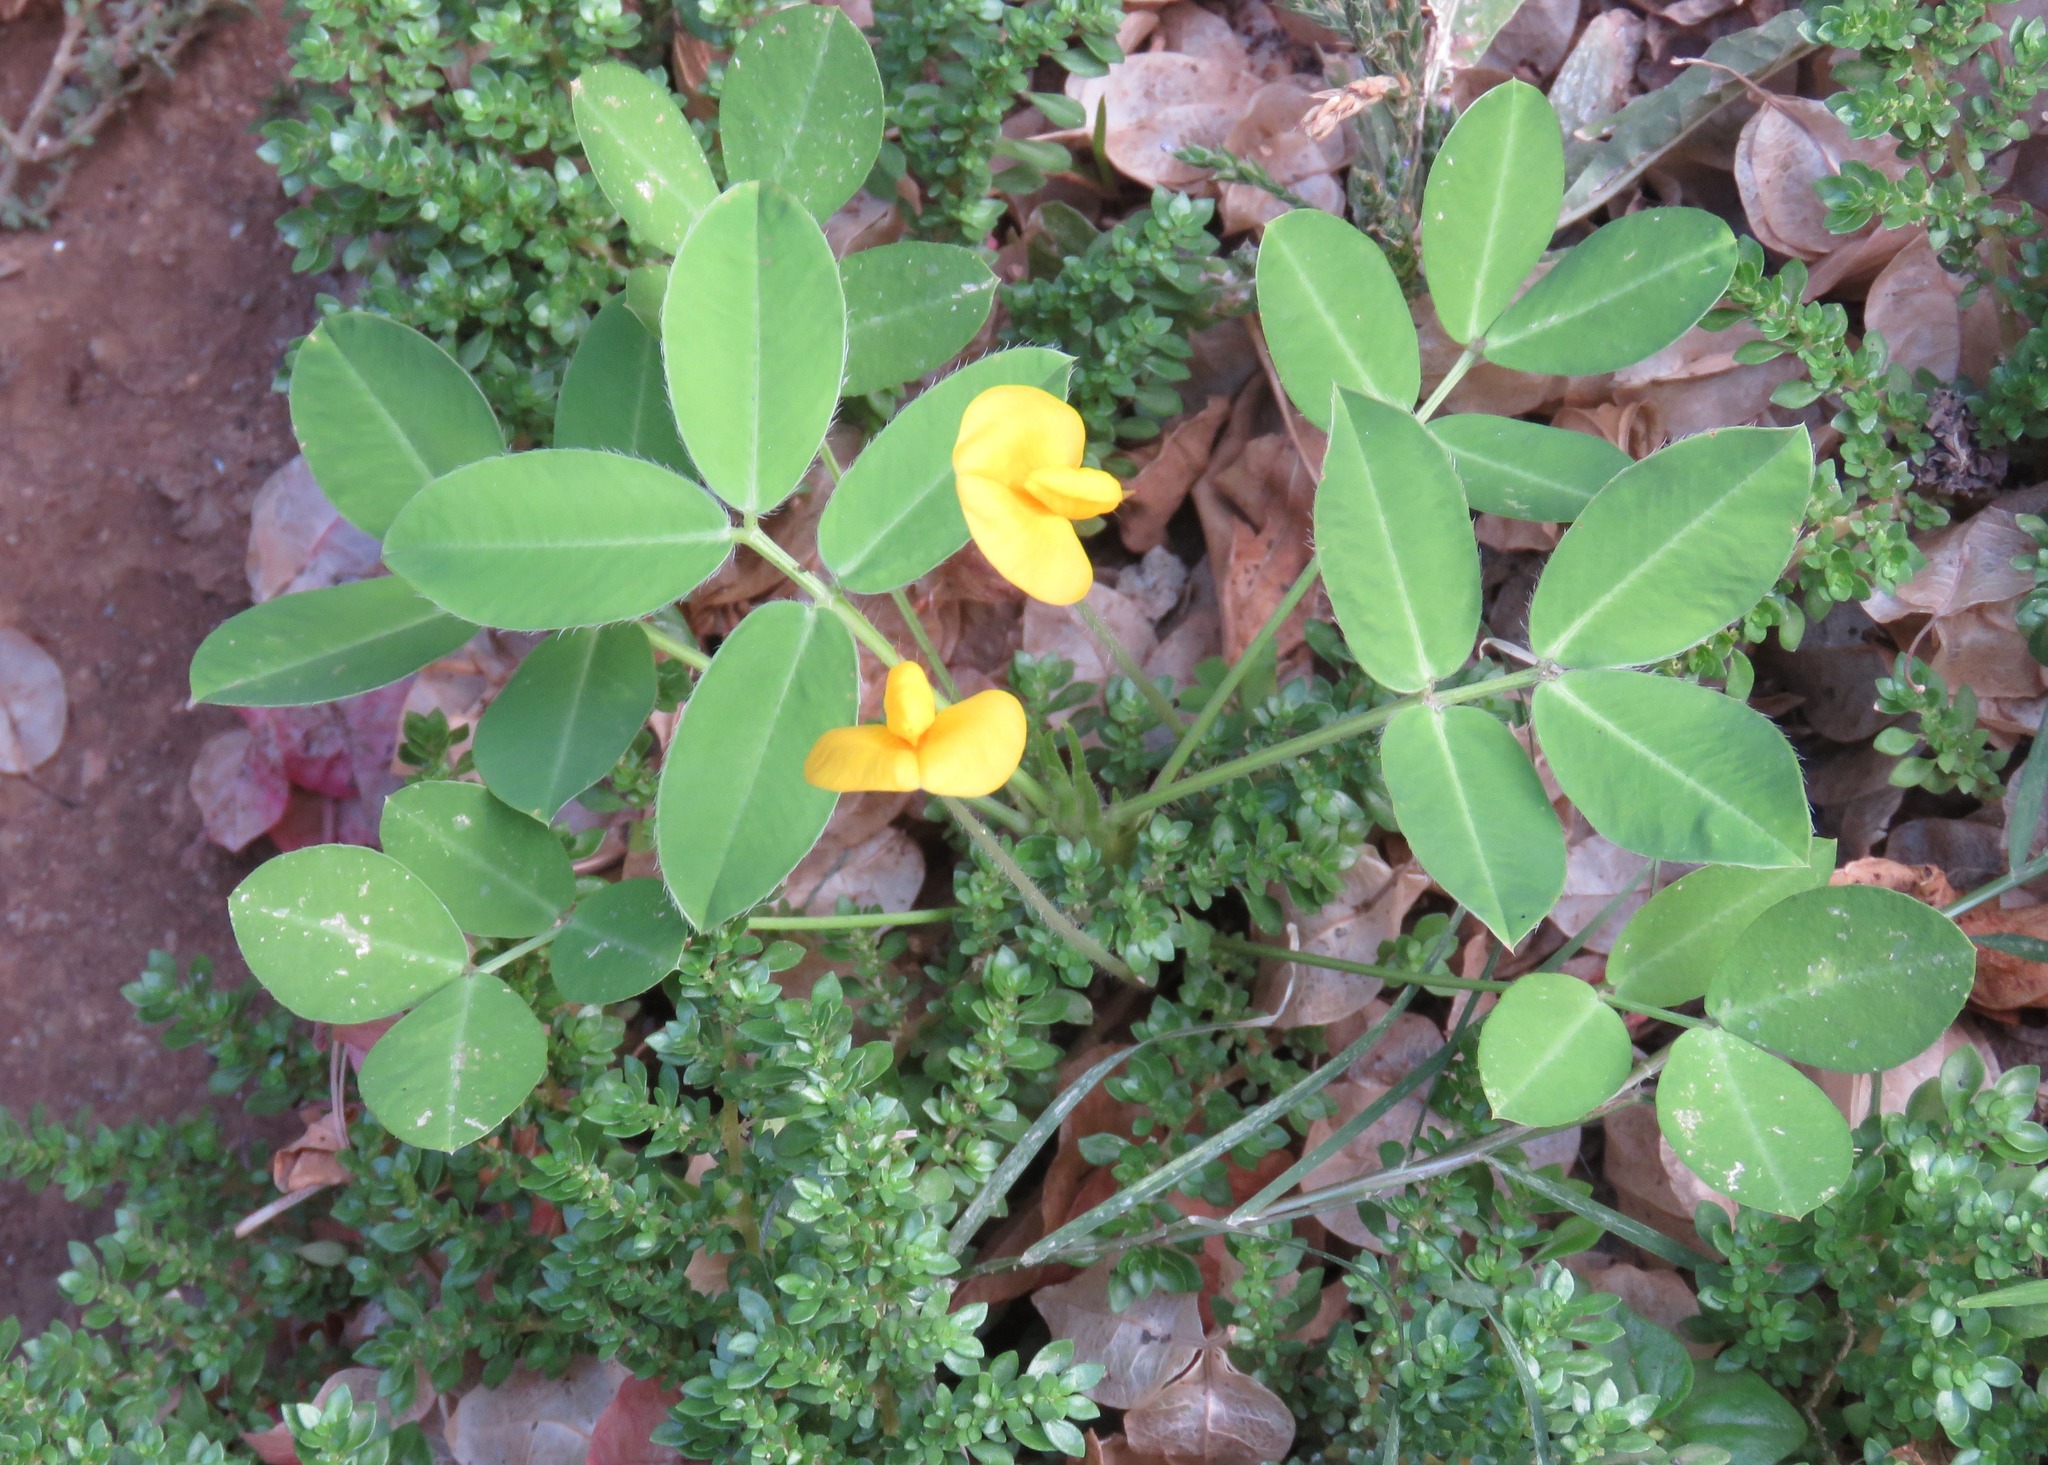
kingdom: Plantae
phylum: Tracheophyta
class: Magnoliopsida
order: Fabales
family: Fabaceae
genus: Arachis
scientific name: Arachis pintoi
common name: Pinto peanut
